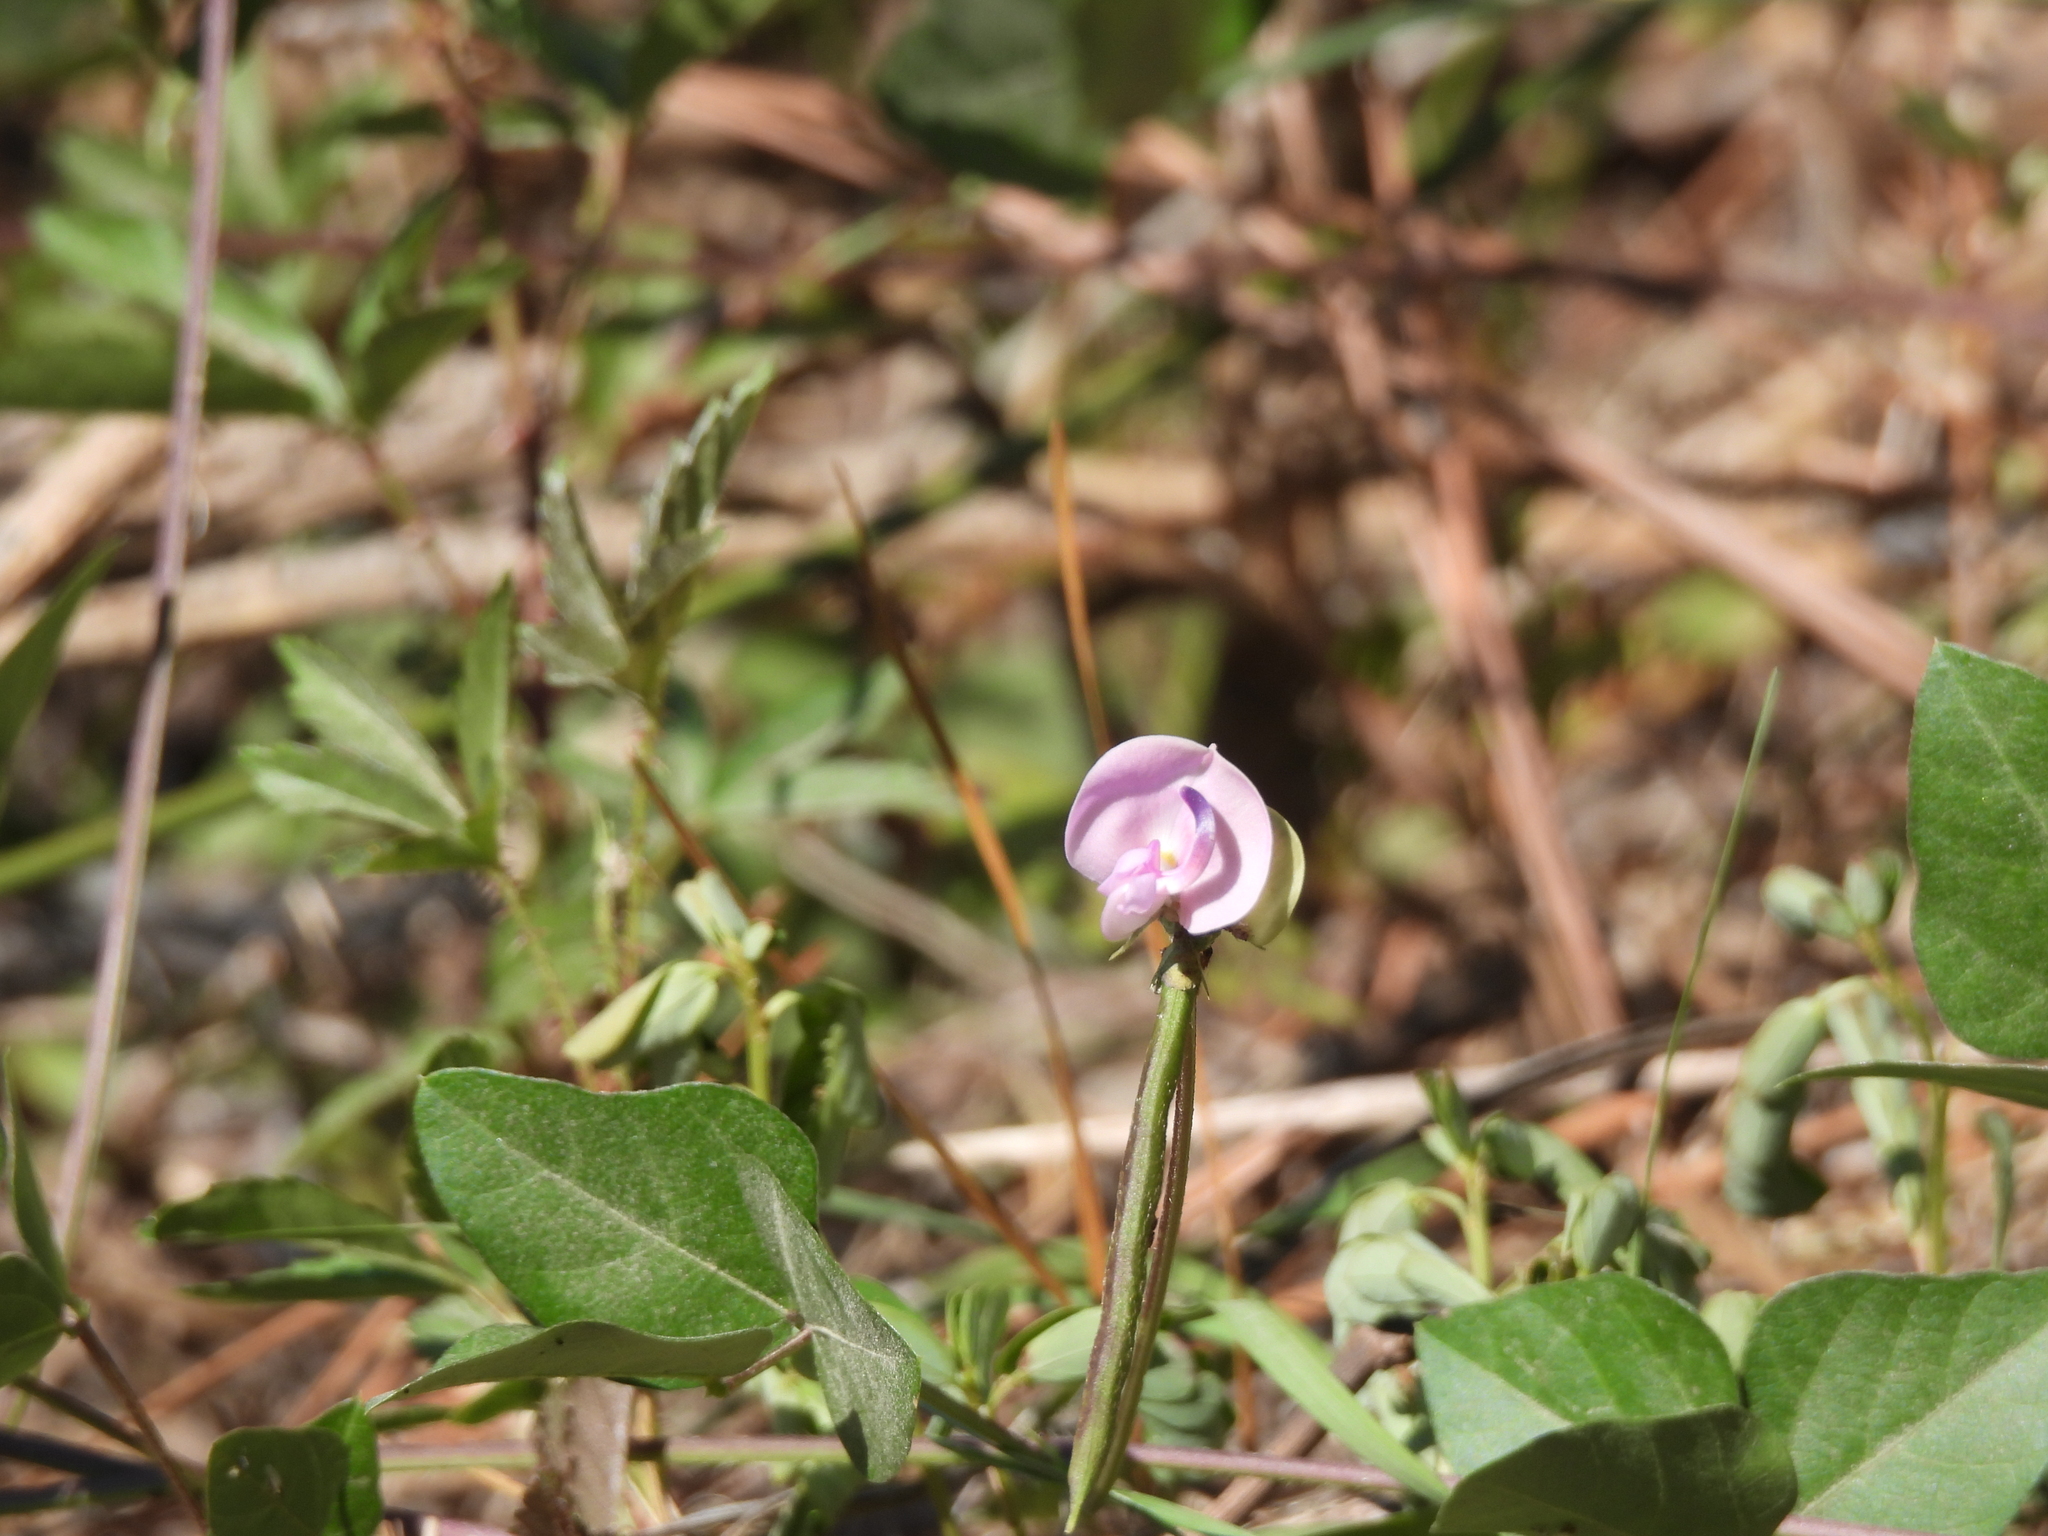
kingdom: Plantae
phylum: Tracheophyta
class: Magnoliopsida
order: Fabales
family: Fabaceae
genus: Strophostyles
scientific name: Strophostyles helvola
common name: Trailing wild bean
